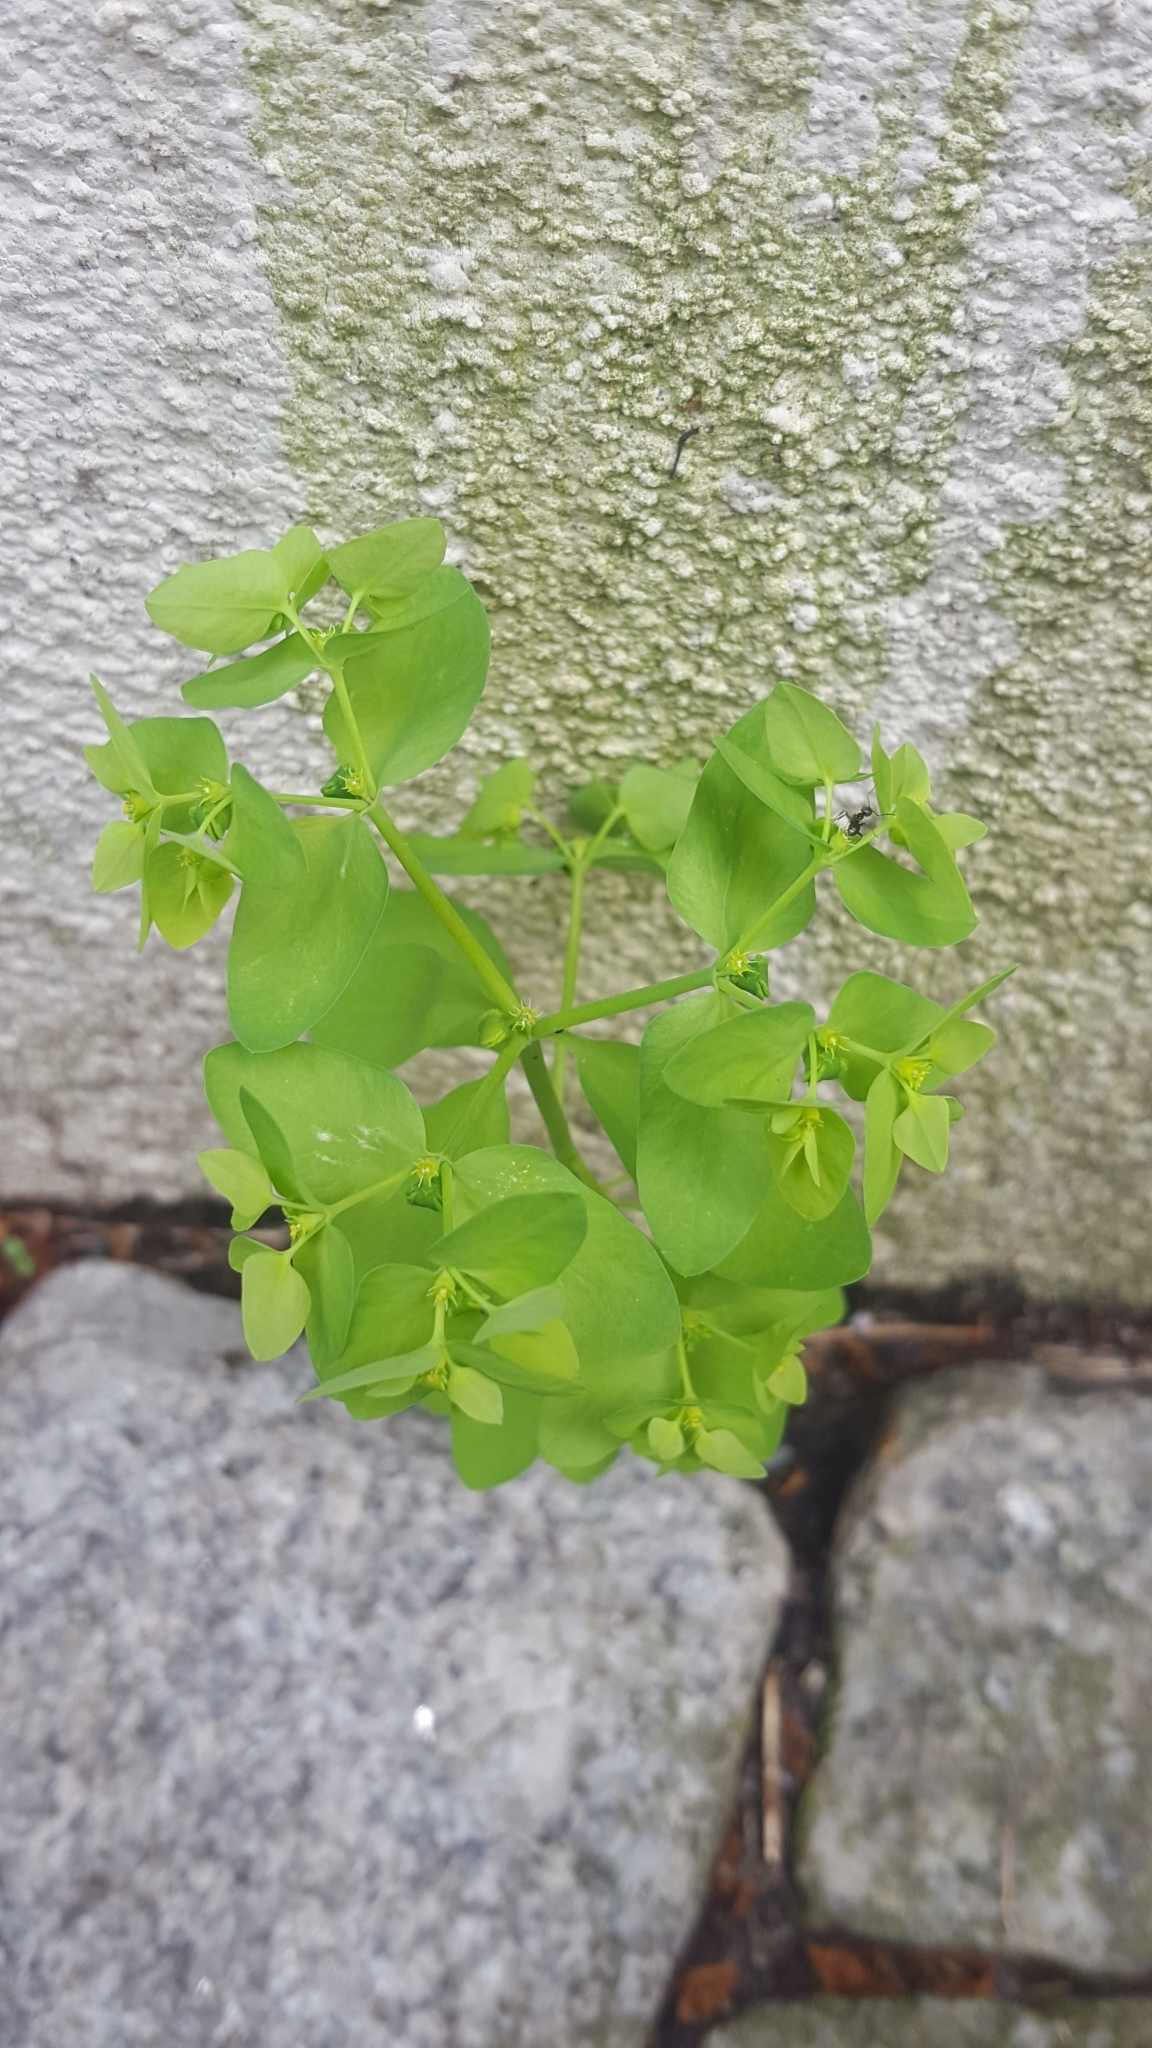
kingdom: Plantae
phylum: Tracheophyta
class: Magnoliopsida
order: Malpighiales
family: Euphorbiaceae
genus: Euphorbia
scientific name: Euphorbia peplus
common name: Petty spurge
